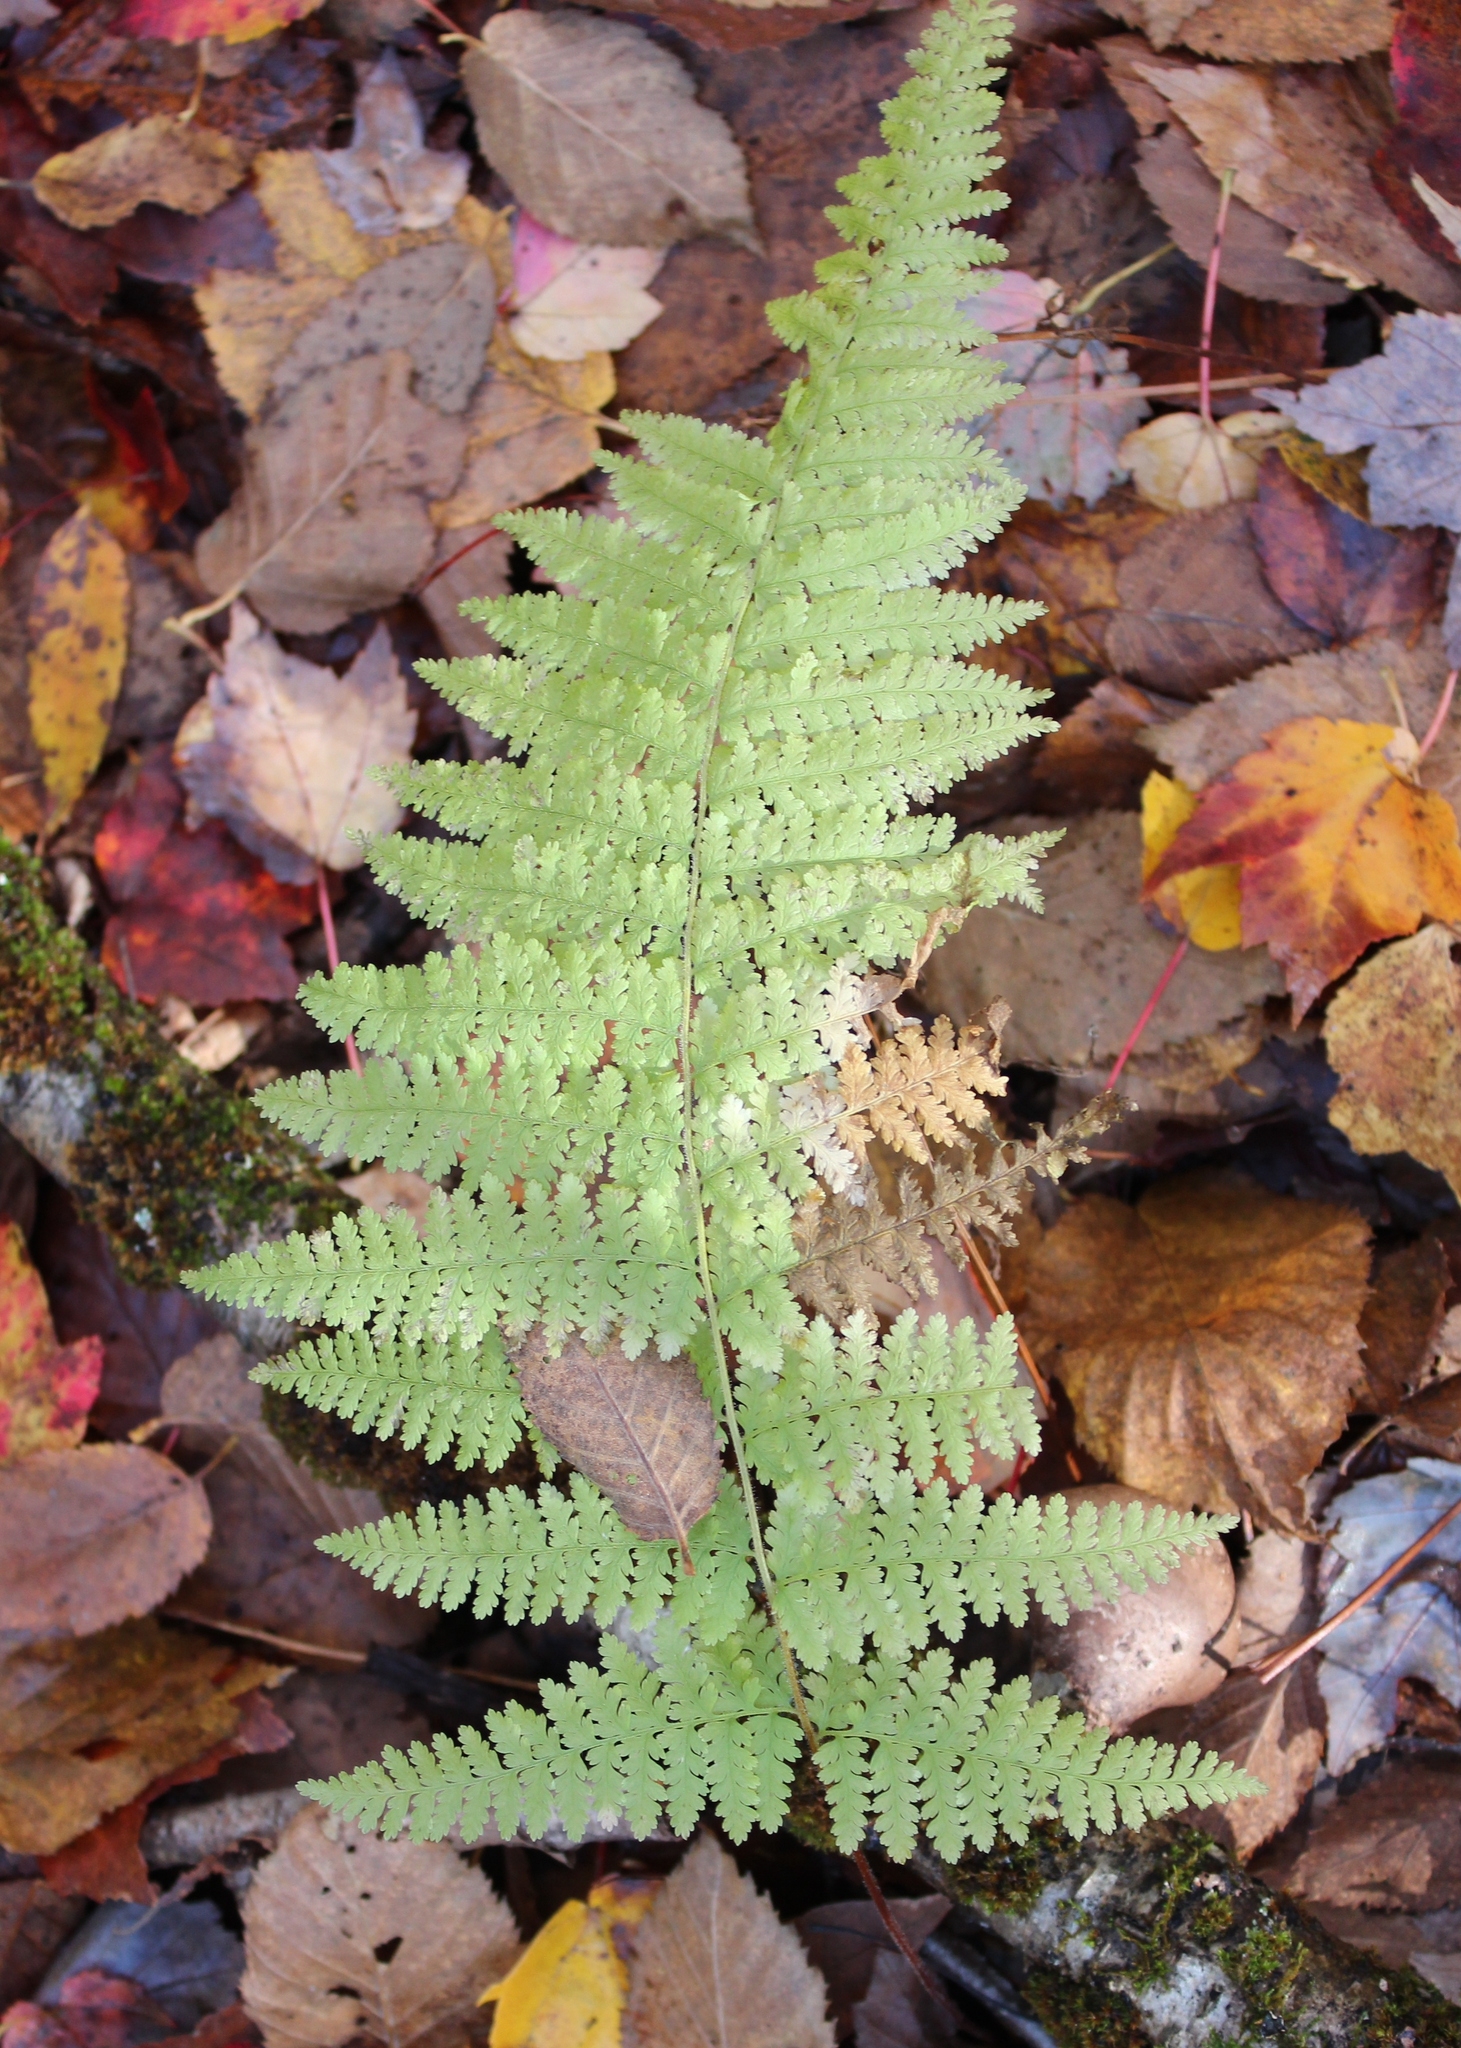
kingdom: Plantae
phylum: Tracheophyta
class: Polypodiopsida
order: Polypodiales
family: Dennstaedtiaceae
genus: Sitobolium
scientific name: Sitobolium punctilobum
